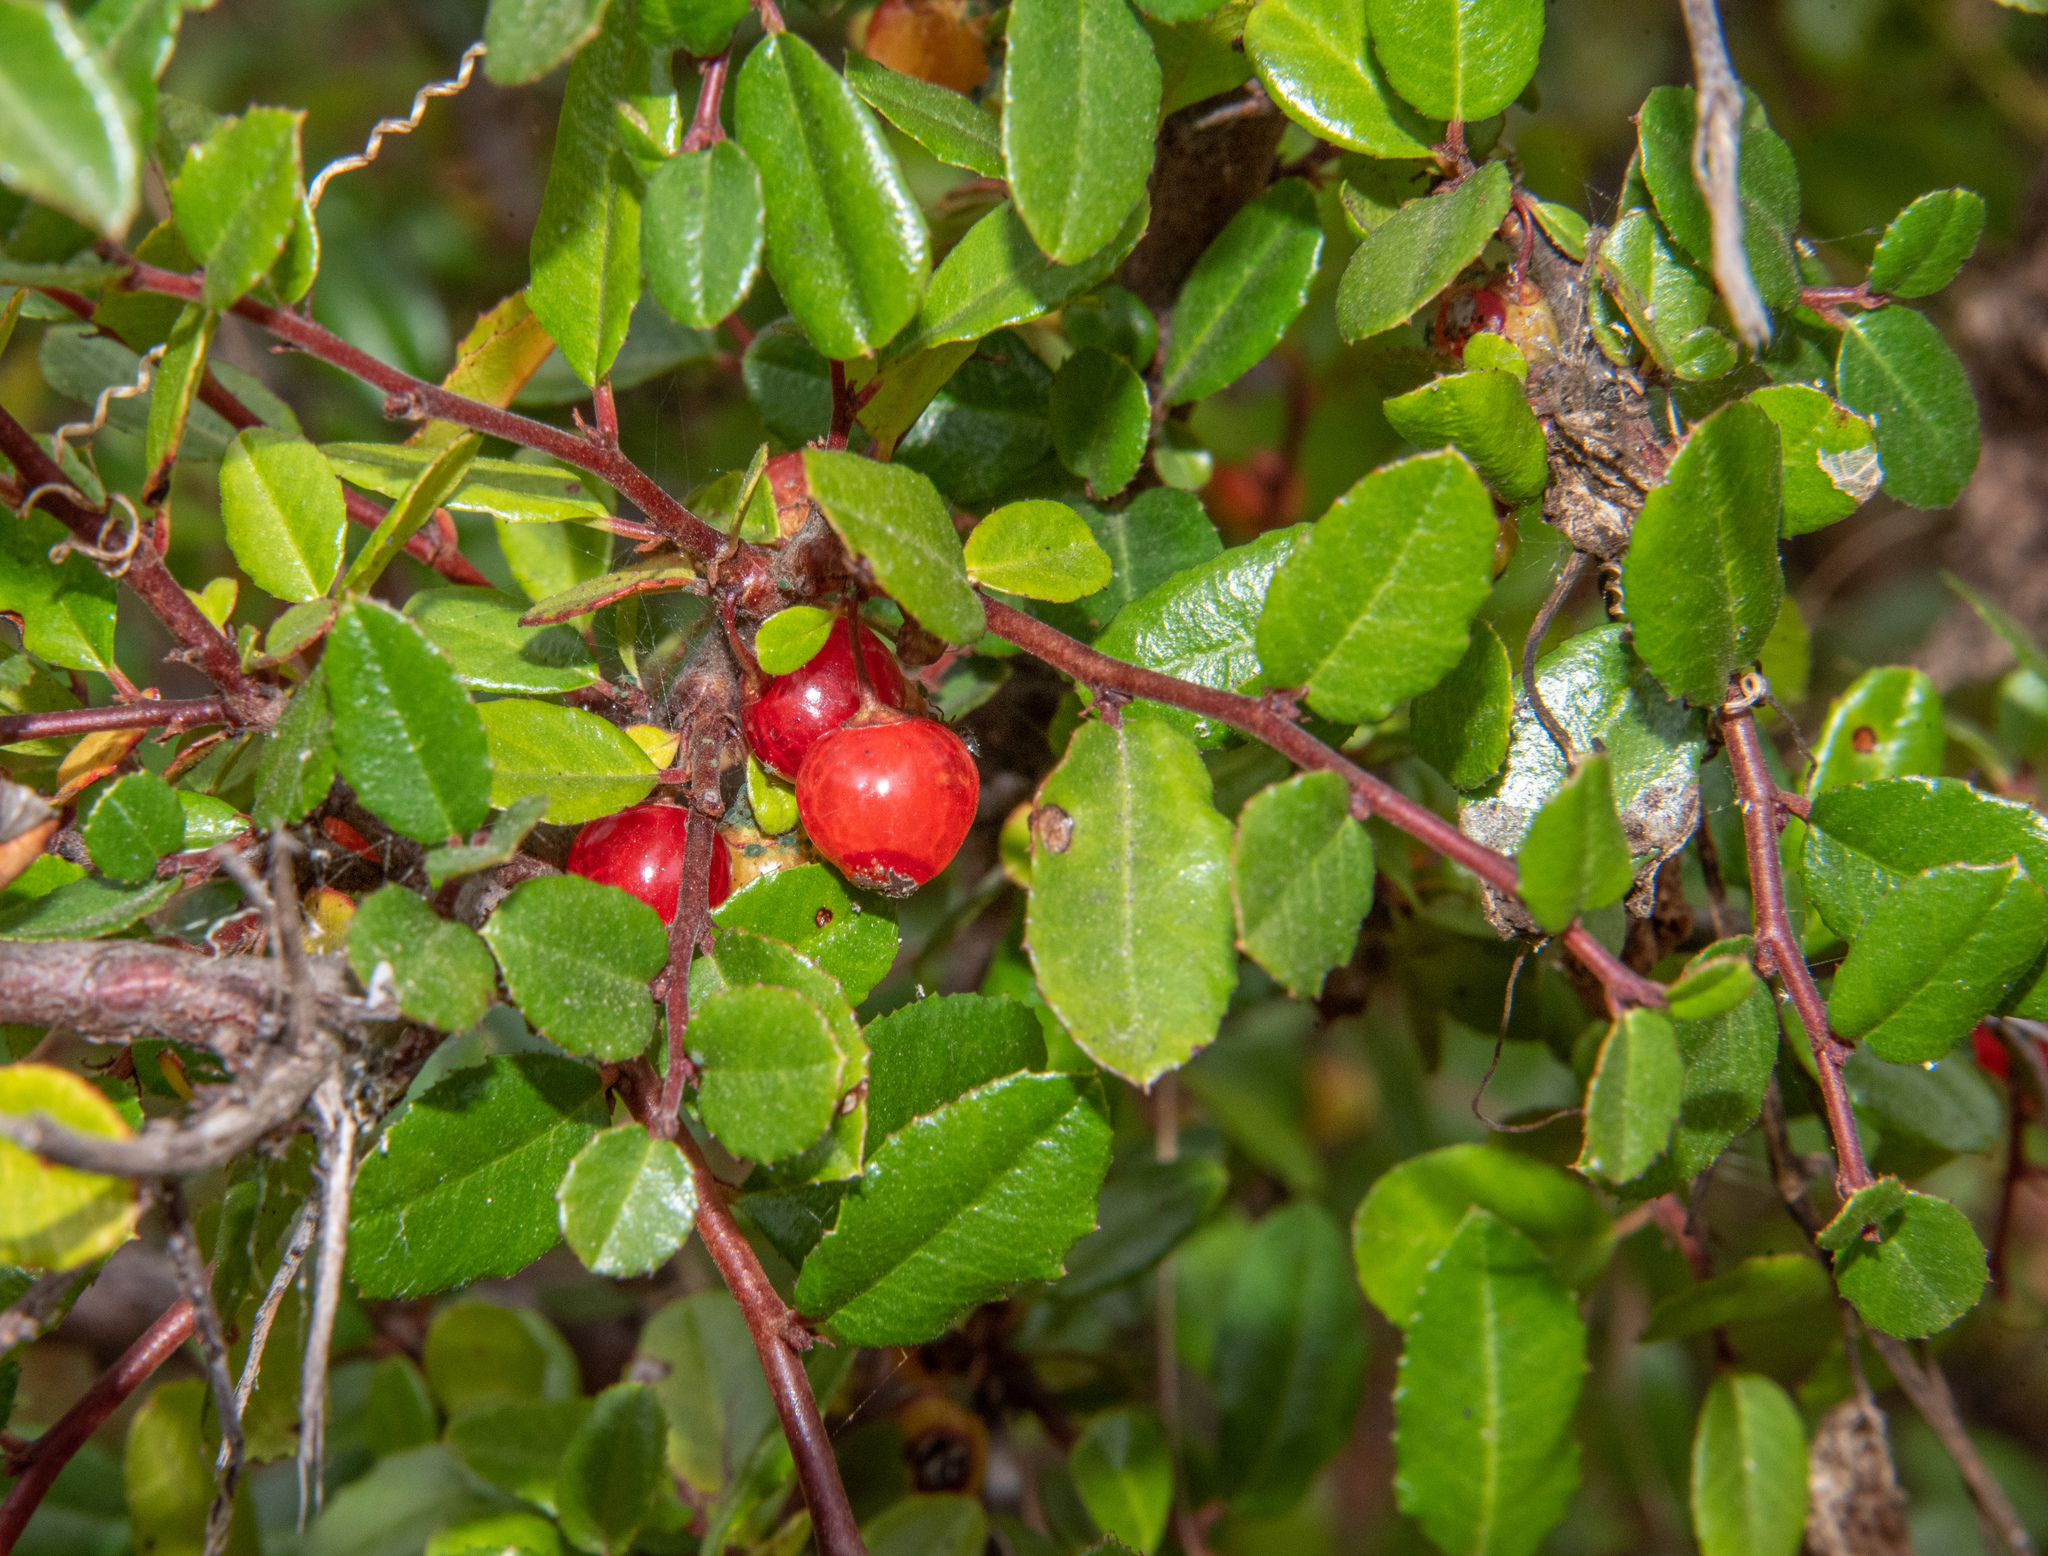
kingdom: Plantae
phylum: Tracheophyta
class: Magnoliopsida
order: Rosales
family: Rhamnaceae
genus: Endotropis
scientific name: Endotropis crocea
